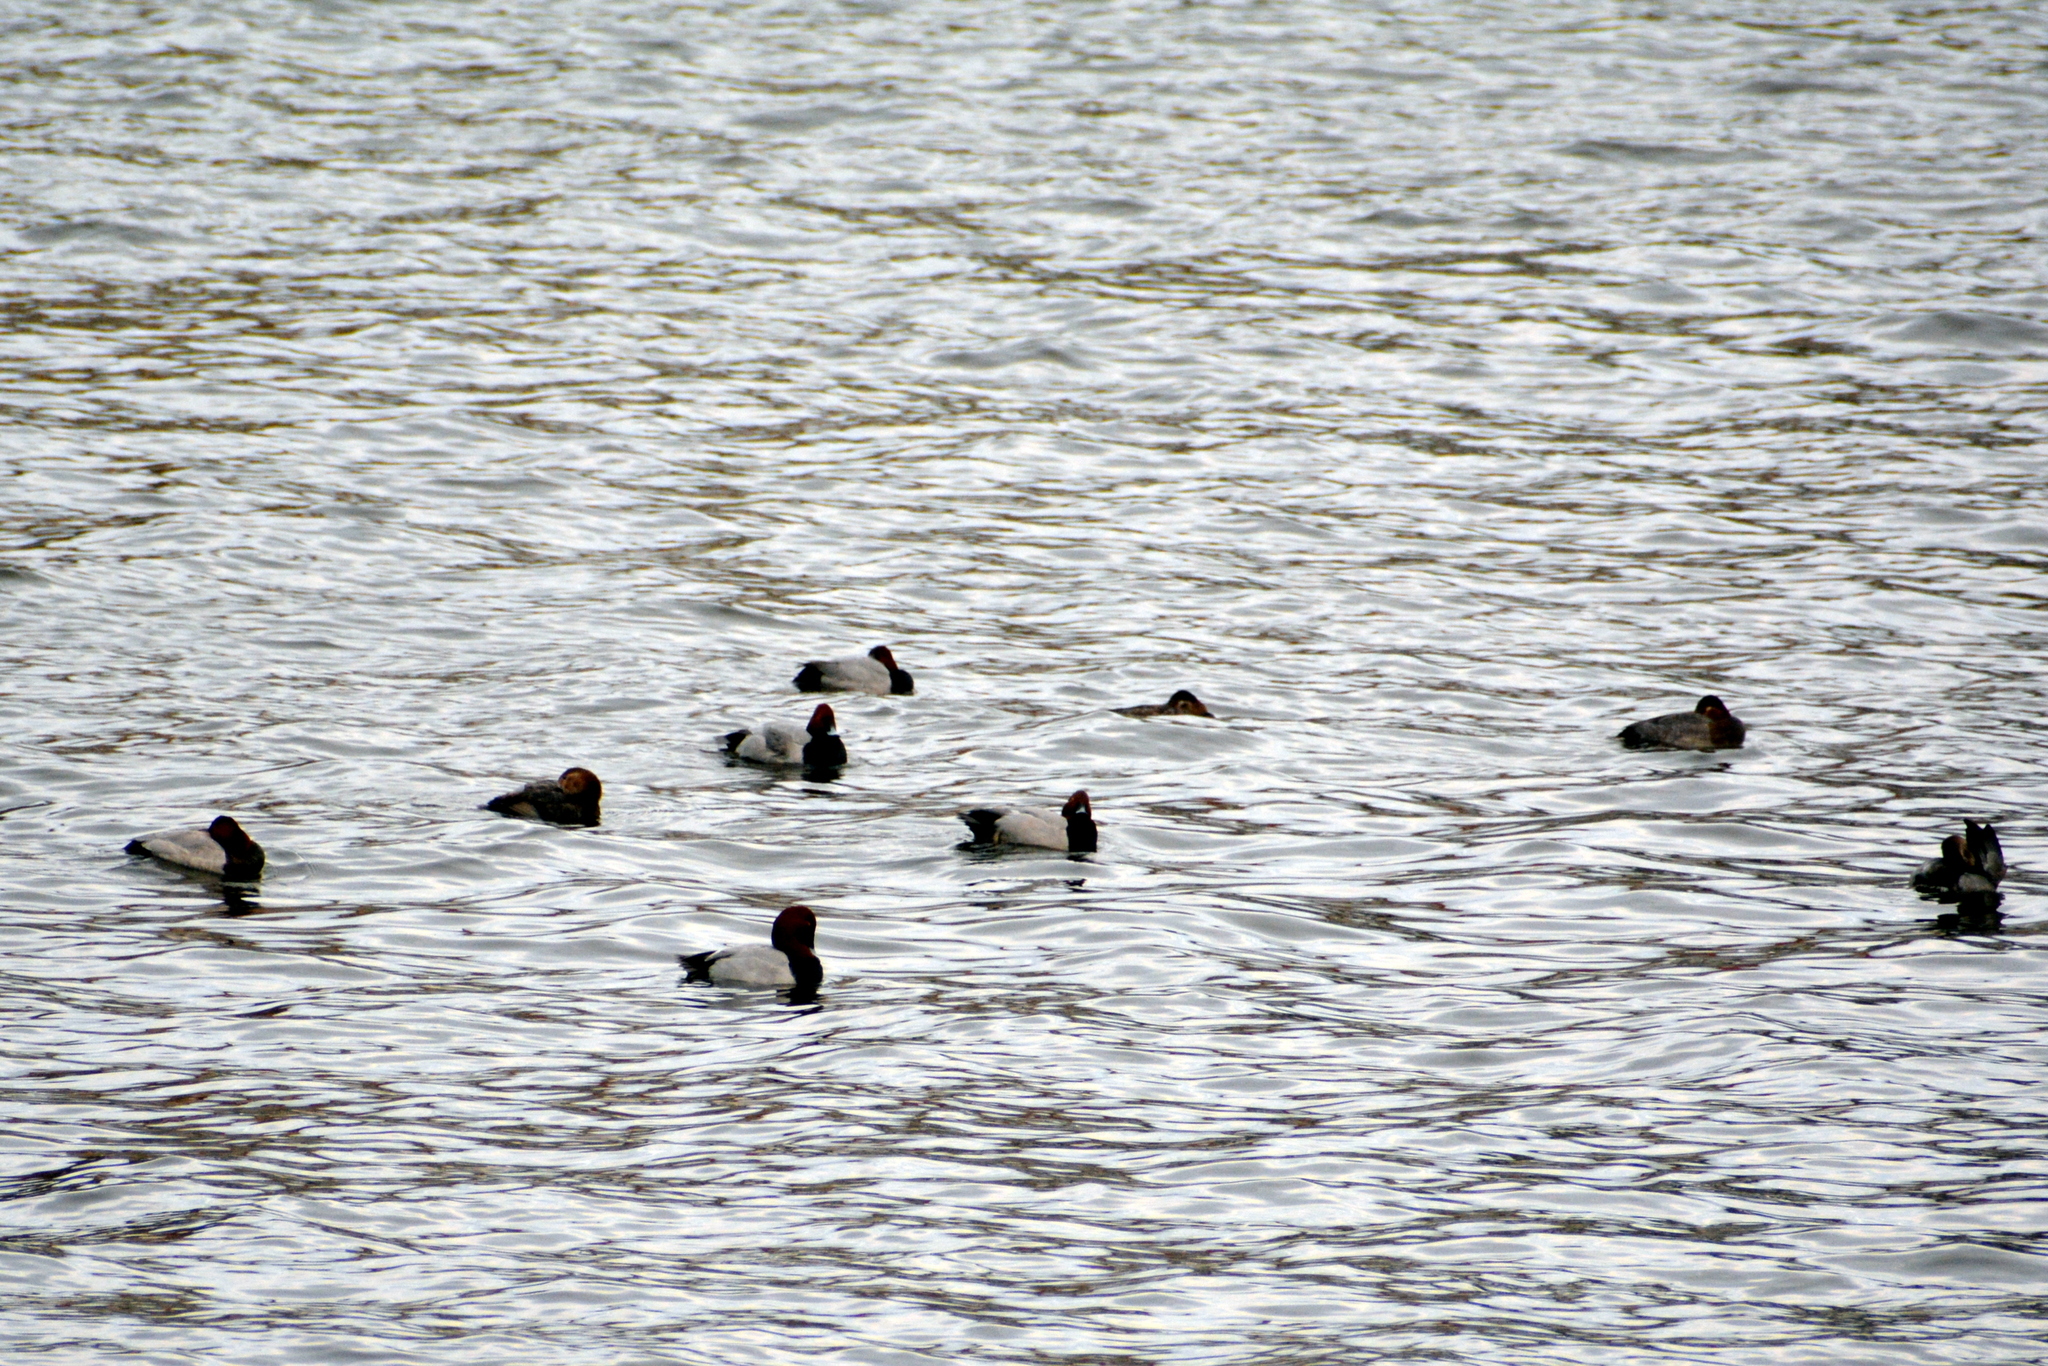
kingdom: Animalia
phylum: Chordata
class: Aves
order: Anseriformes
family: Anatidae
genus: Aythya
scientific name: Aythya ferina
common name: Common pochard
